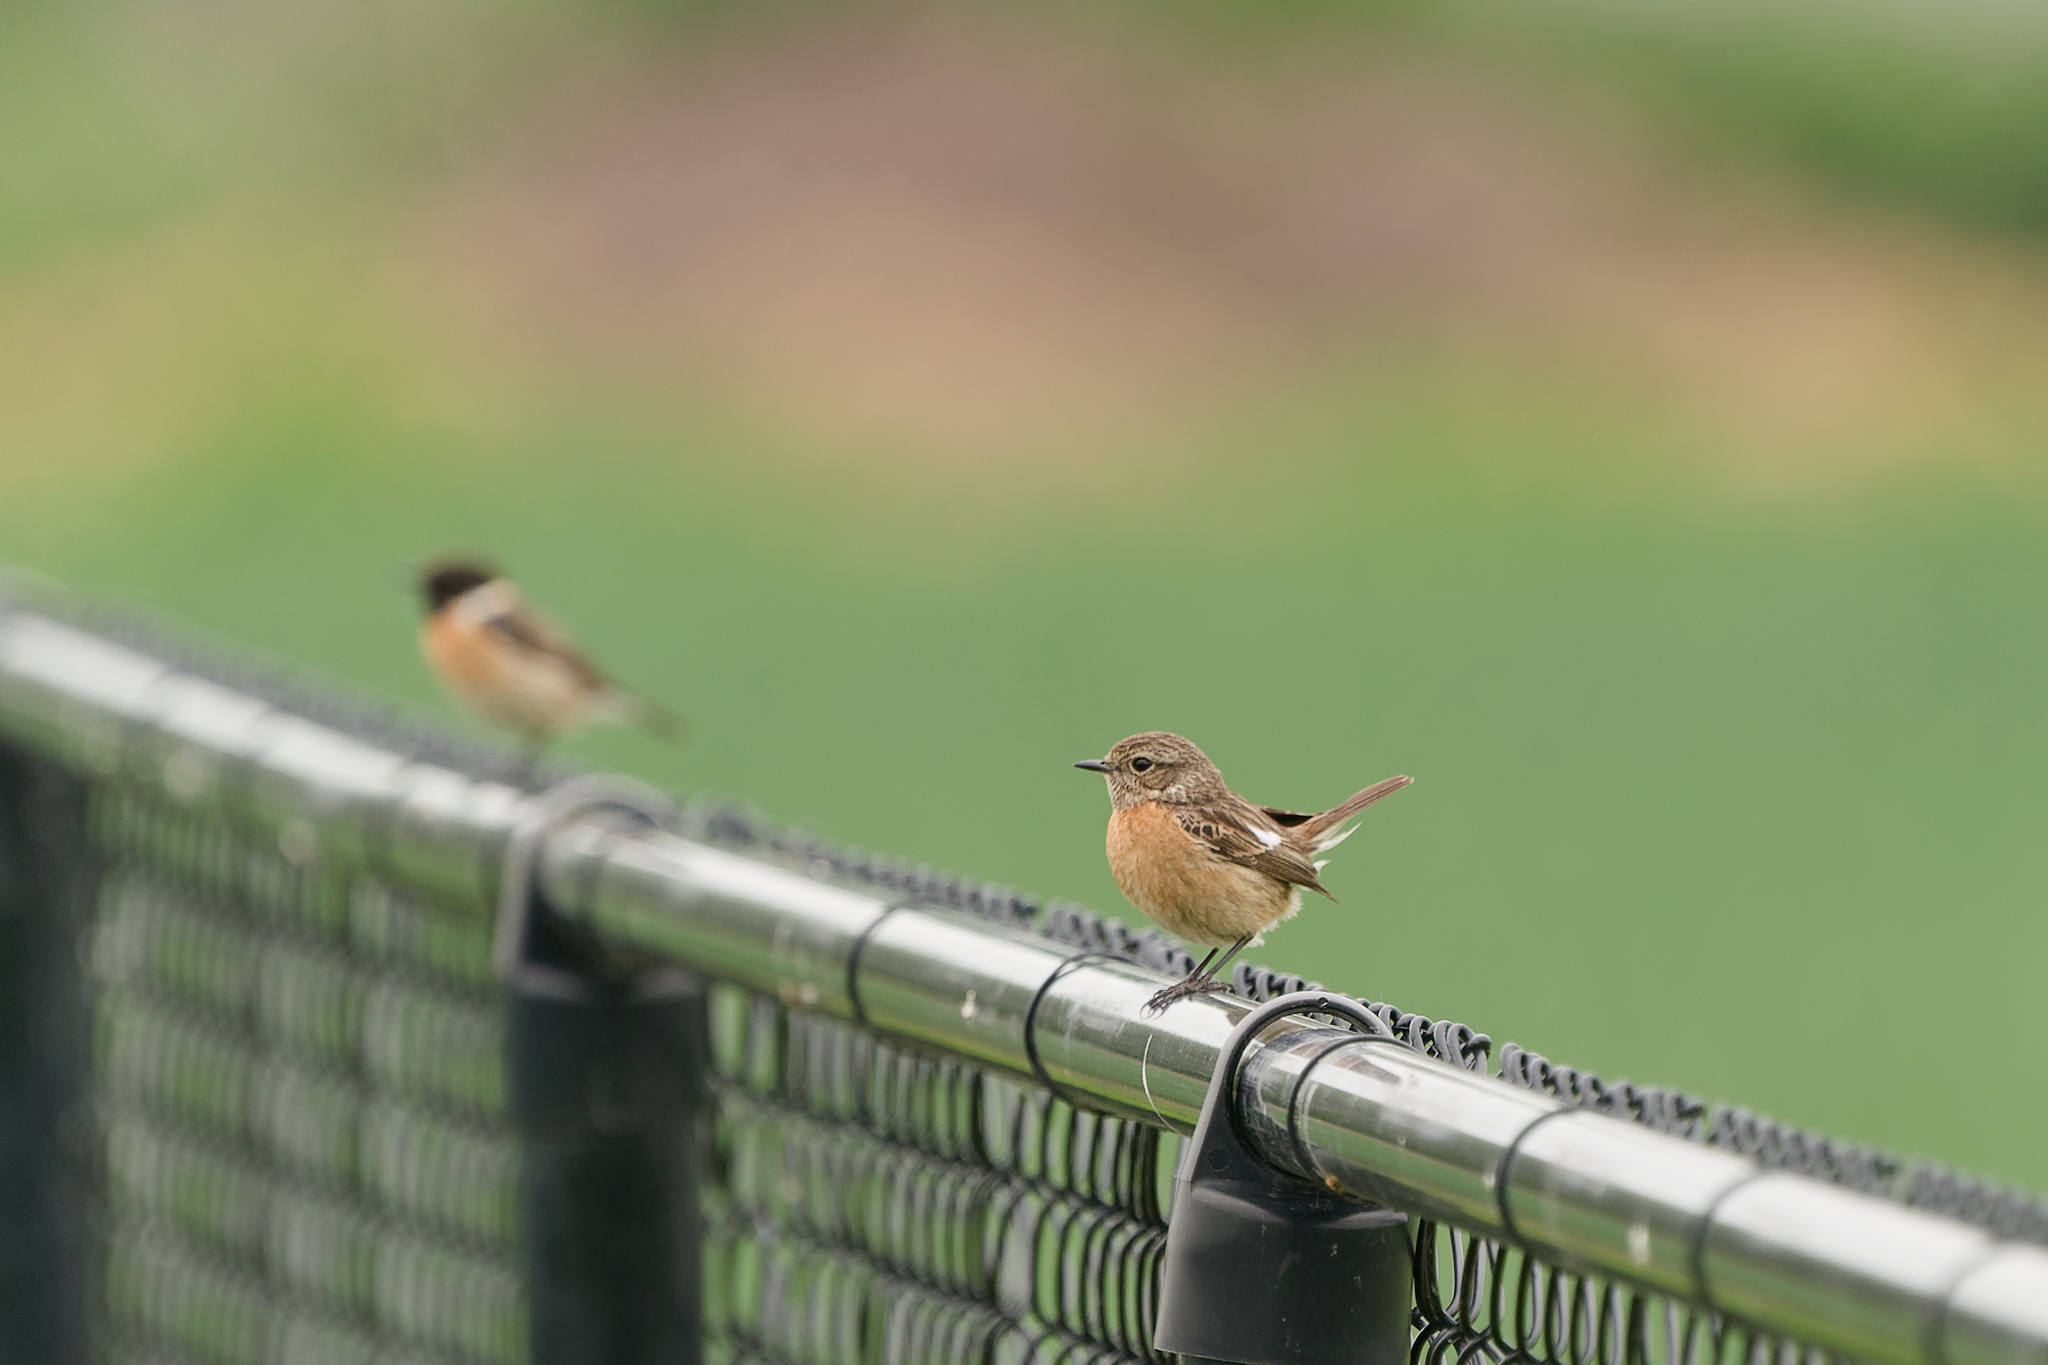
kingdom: Animalia
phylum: Chordata
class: Aves
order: Passeriformes
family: Muscicapidae
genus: Saxicola
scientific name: Saxicola rubicola
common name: European stonechat
